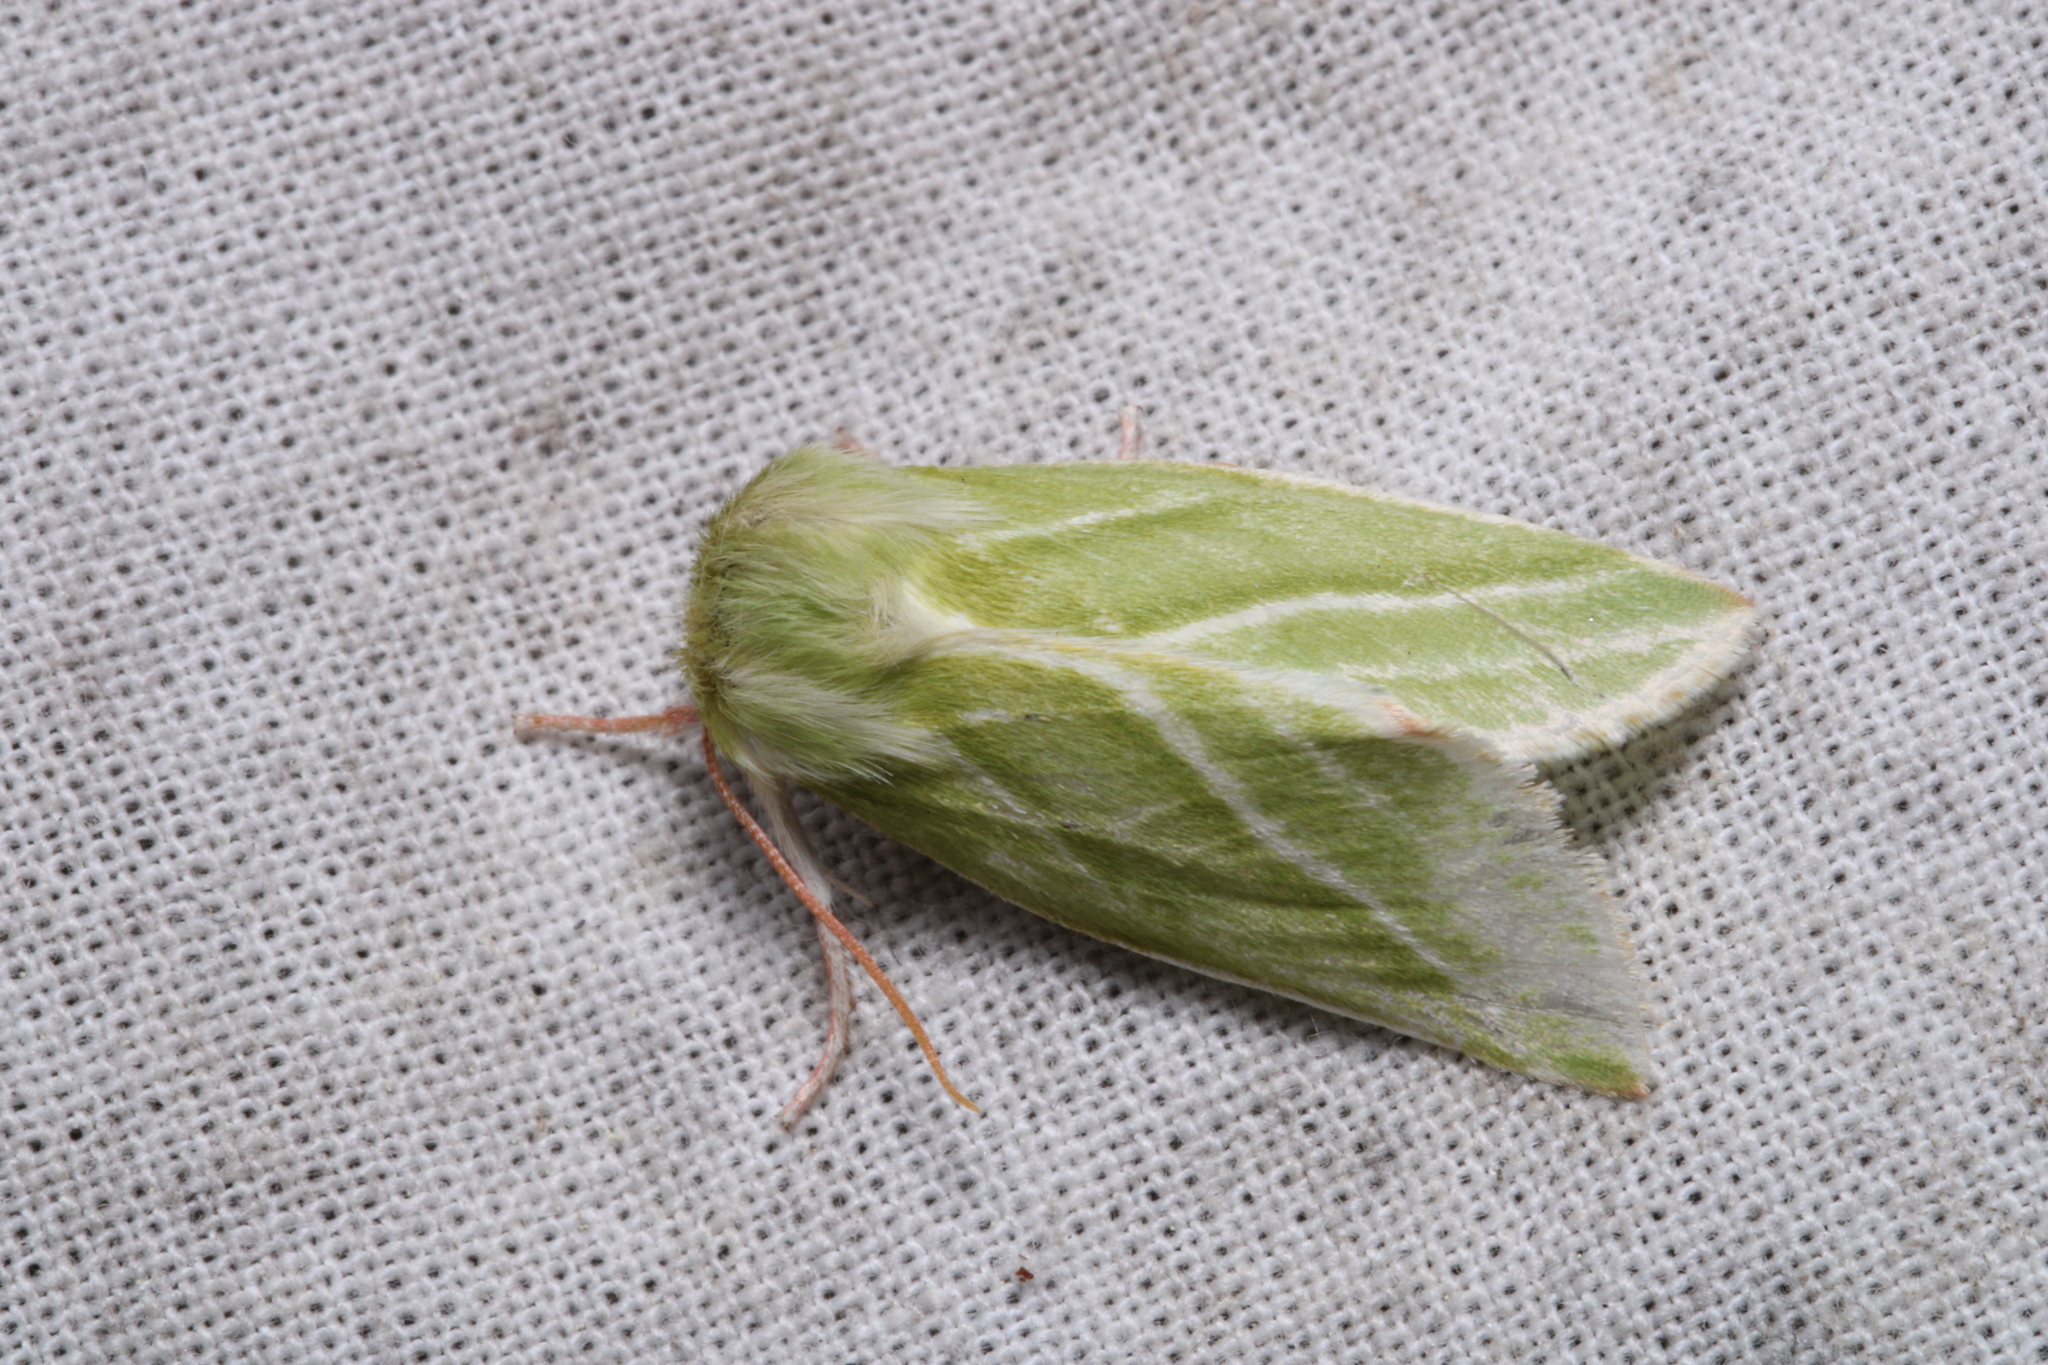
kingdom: Animalia
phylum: Arthropoda
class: Insecta
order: Lepidoptera
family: Nolidae
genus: Pseudoips
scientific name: Pseudoips prasinana
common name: Green silver-lines
